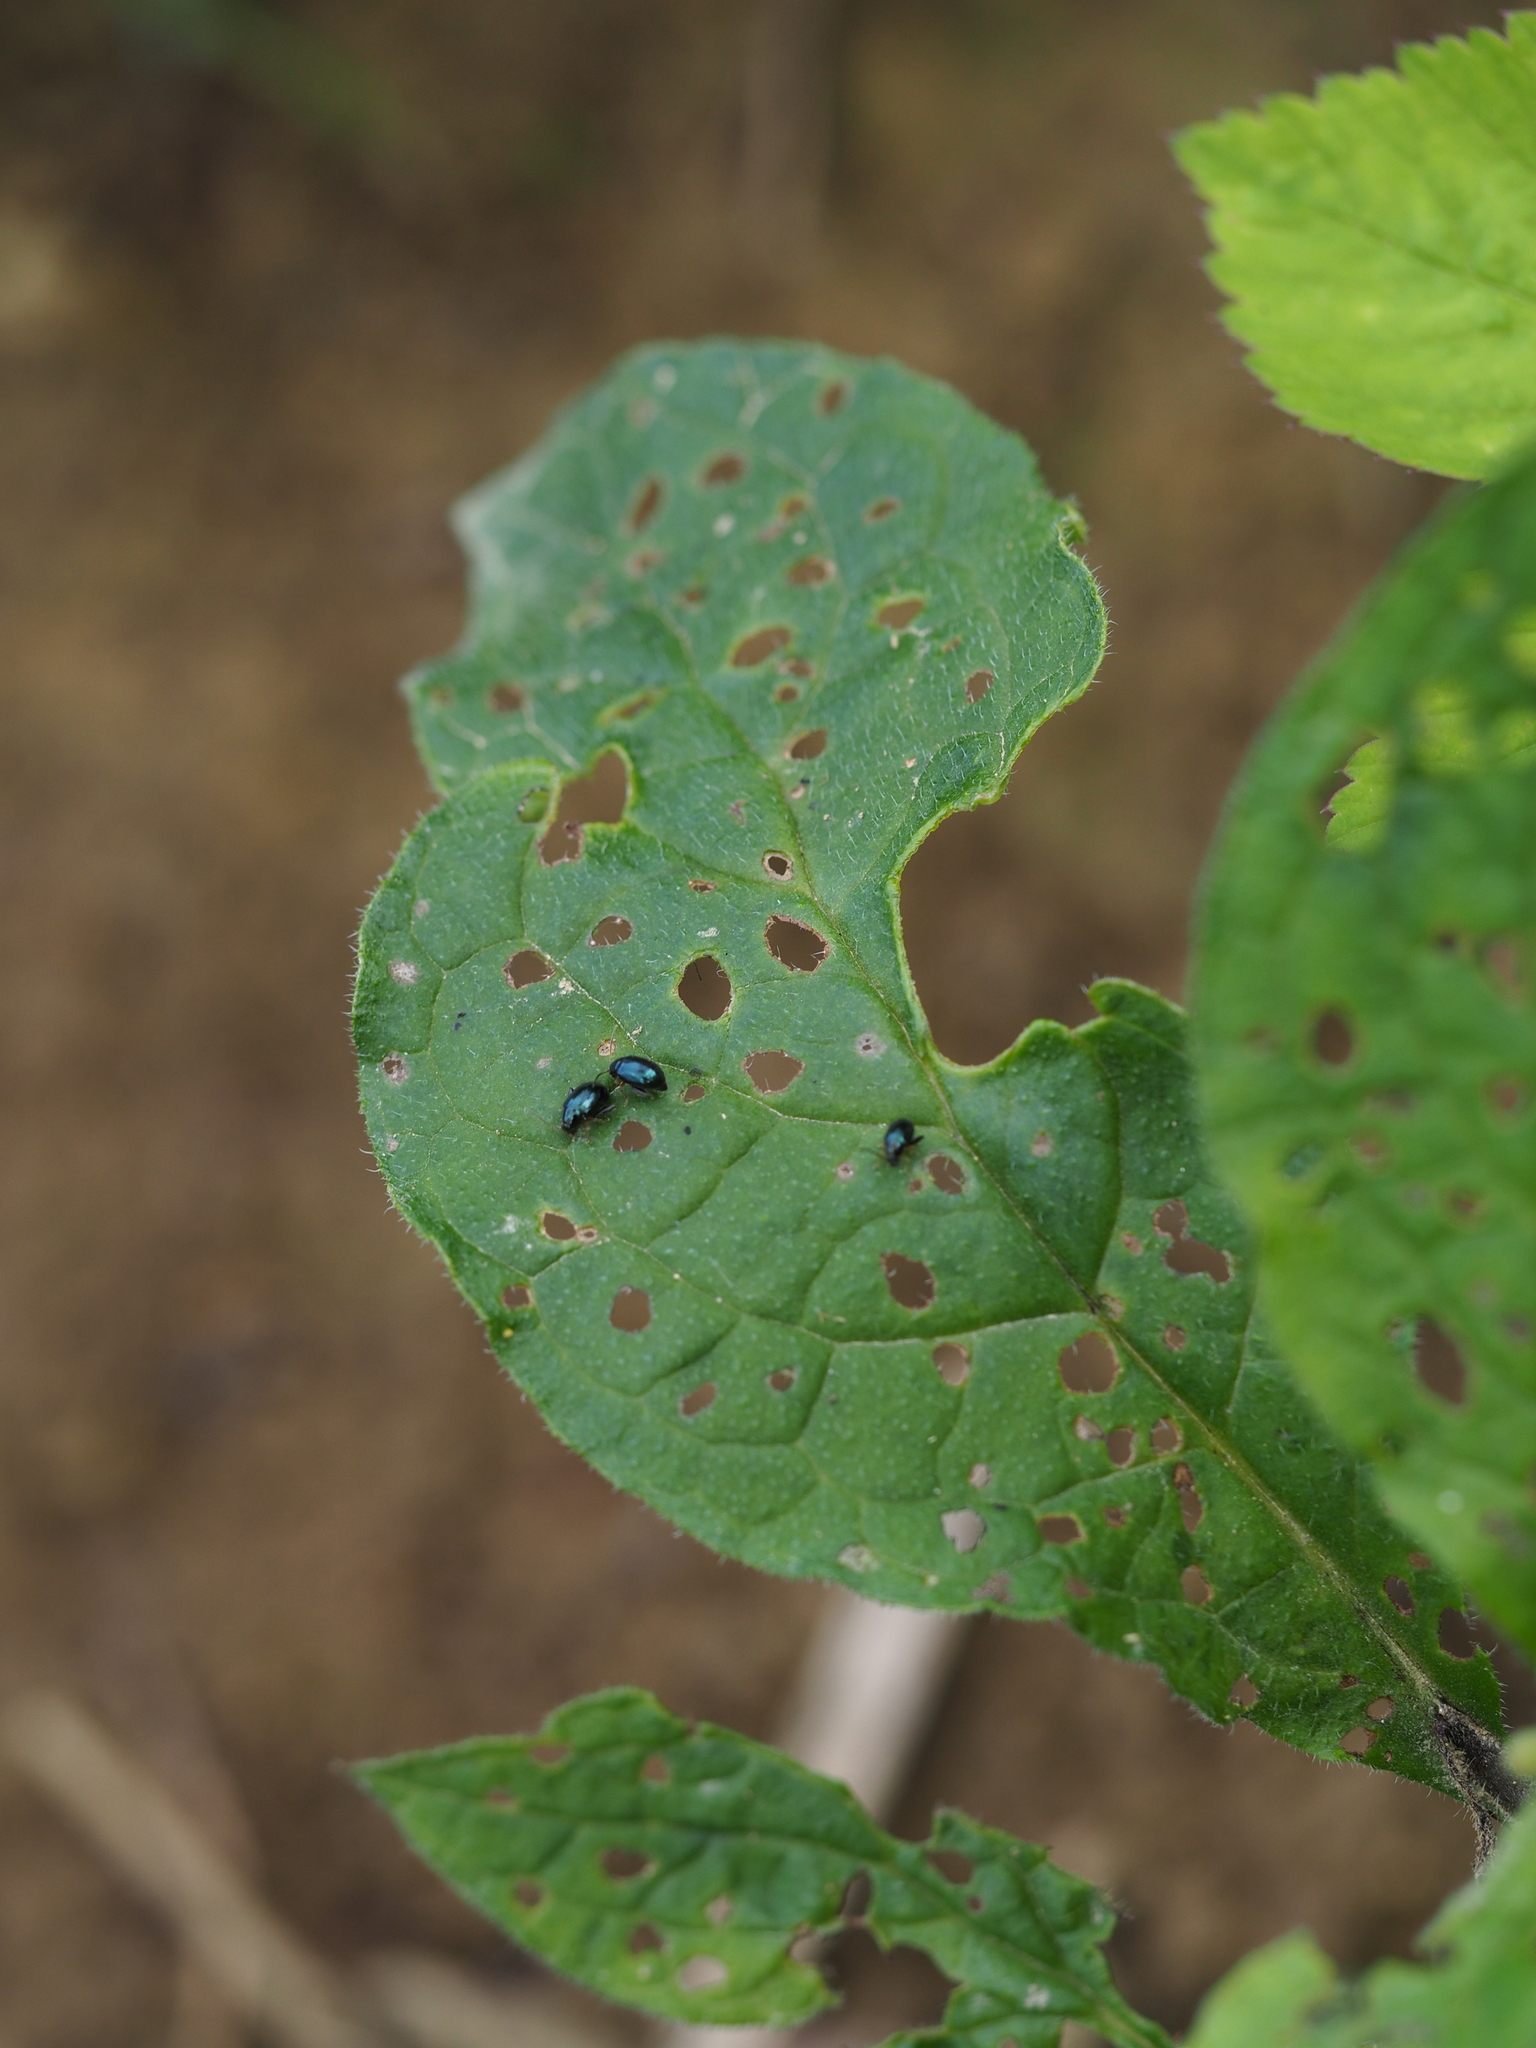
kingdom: Animalia
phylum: Arthropoda
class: Insecta
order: Coleoptera
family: Chrysomelidae
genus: Longitarsus
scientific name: Longitarsus linnaei
